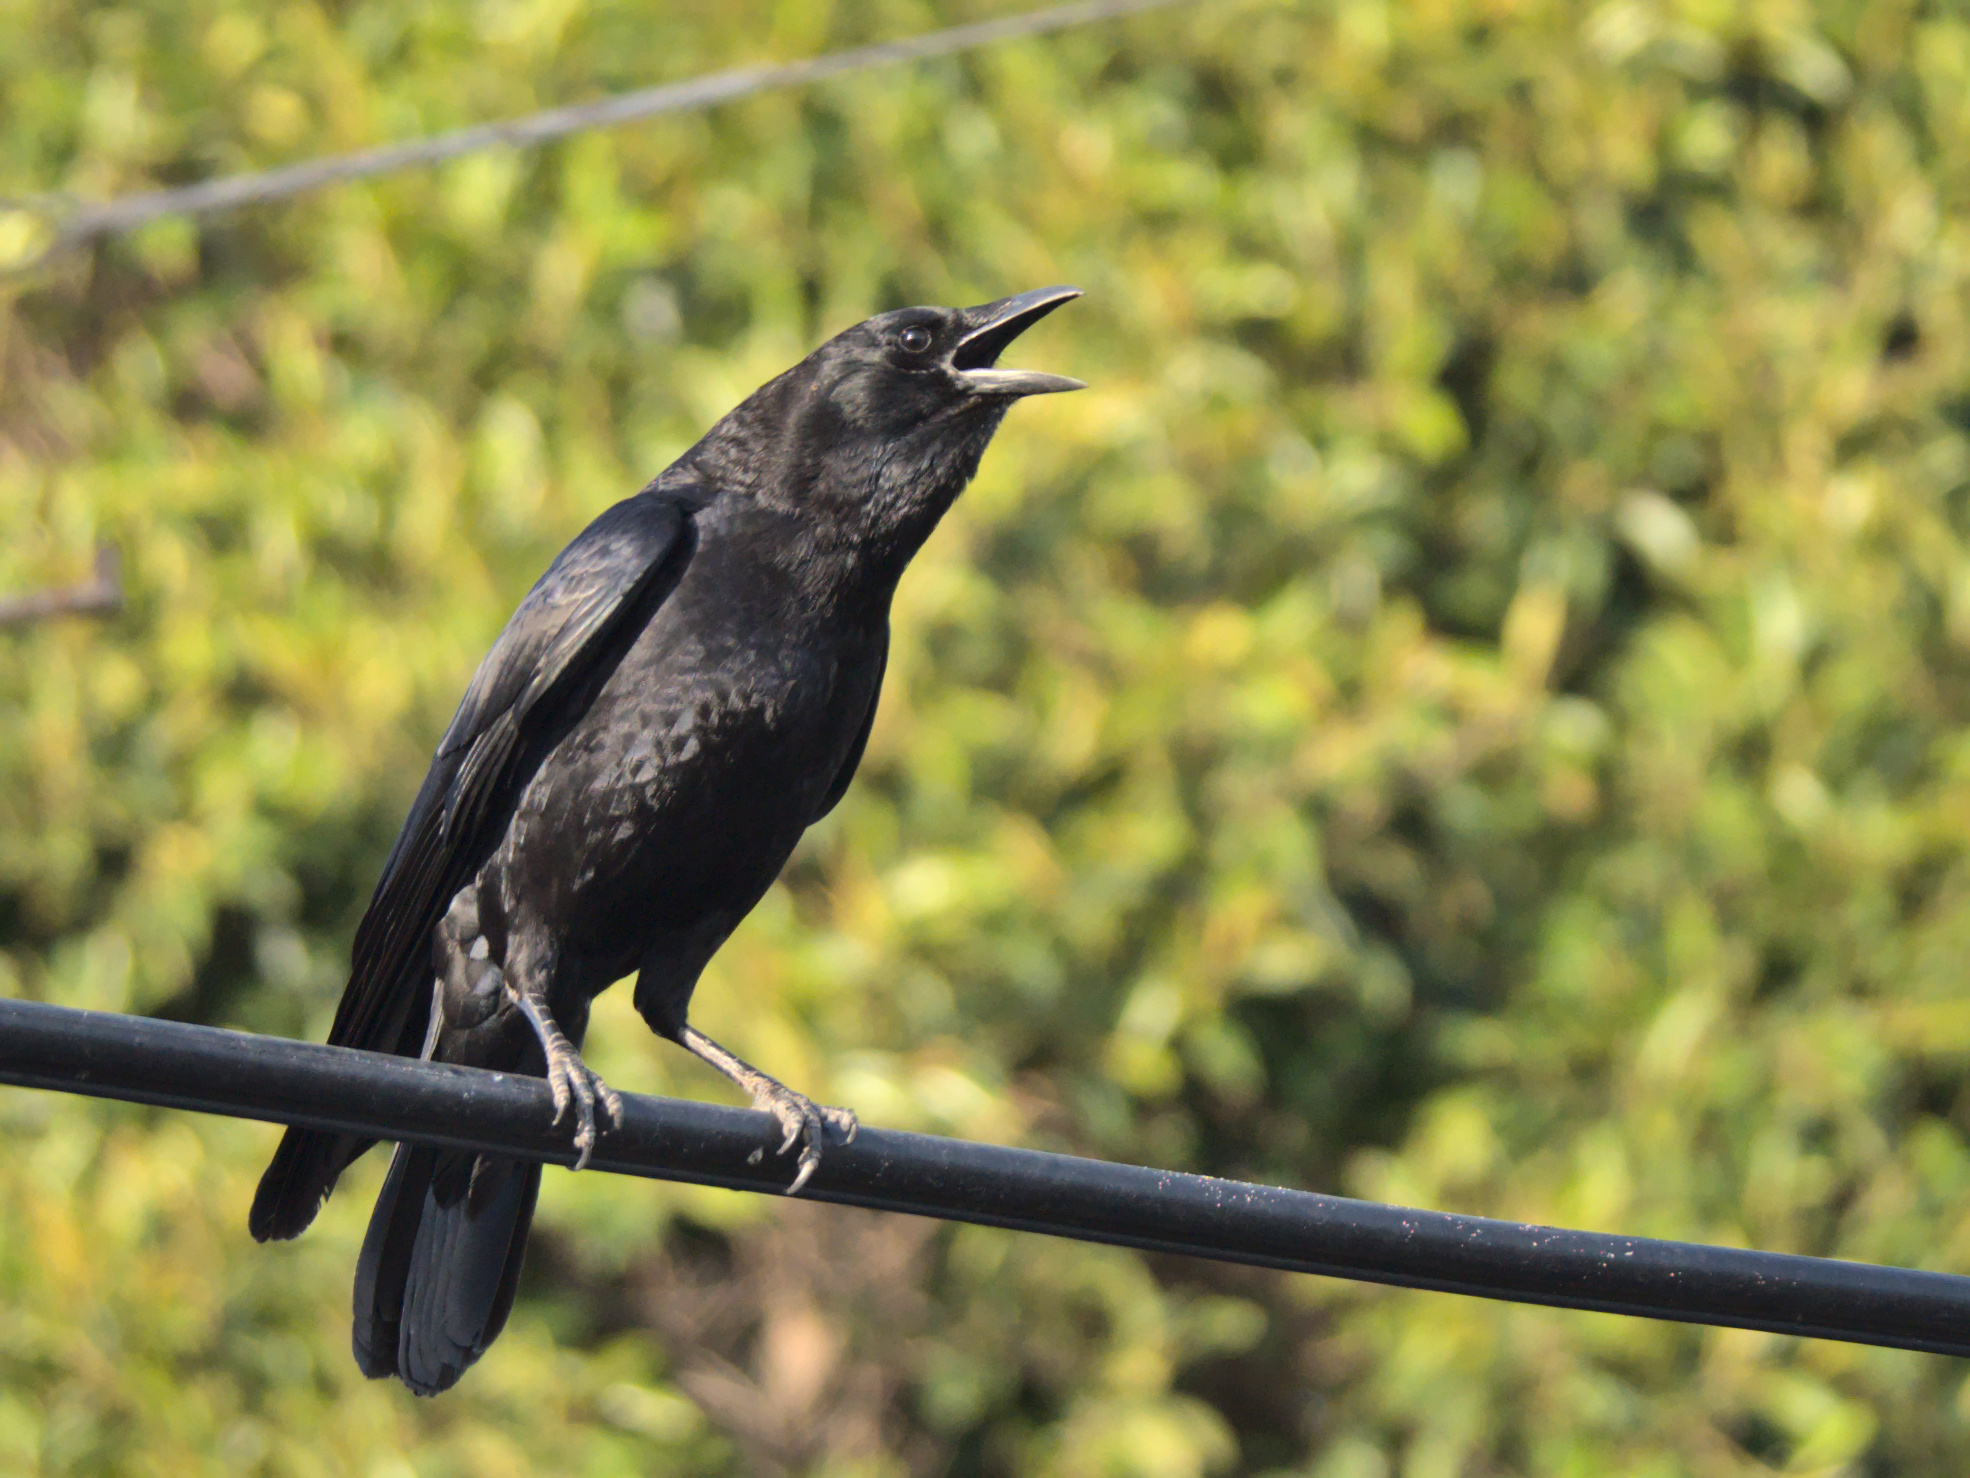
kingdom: Animalia
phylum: Chordata
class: Aves
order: Passeriformes
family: Corvidae
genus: Corvus
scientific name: Corvus brachyrhynchos
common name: American crow
